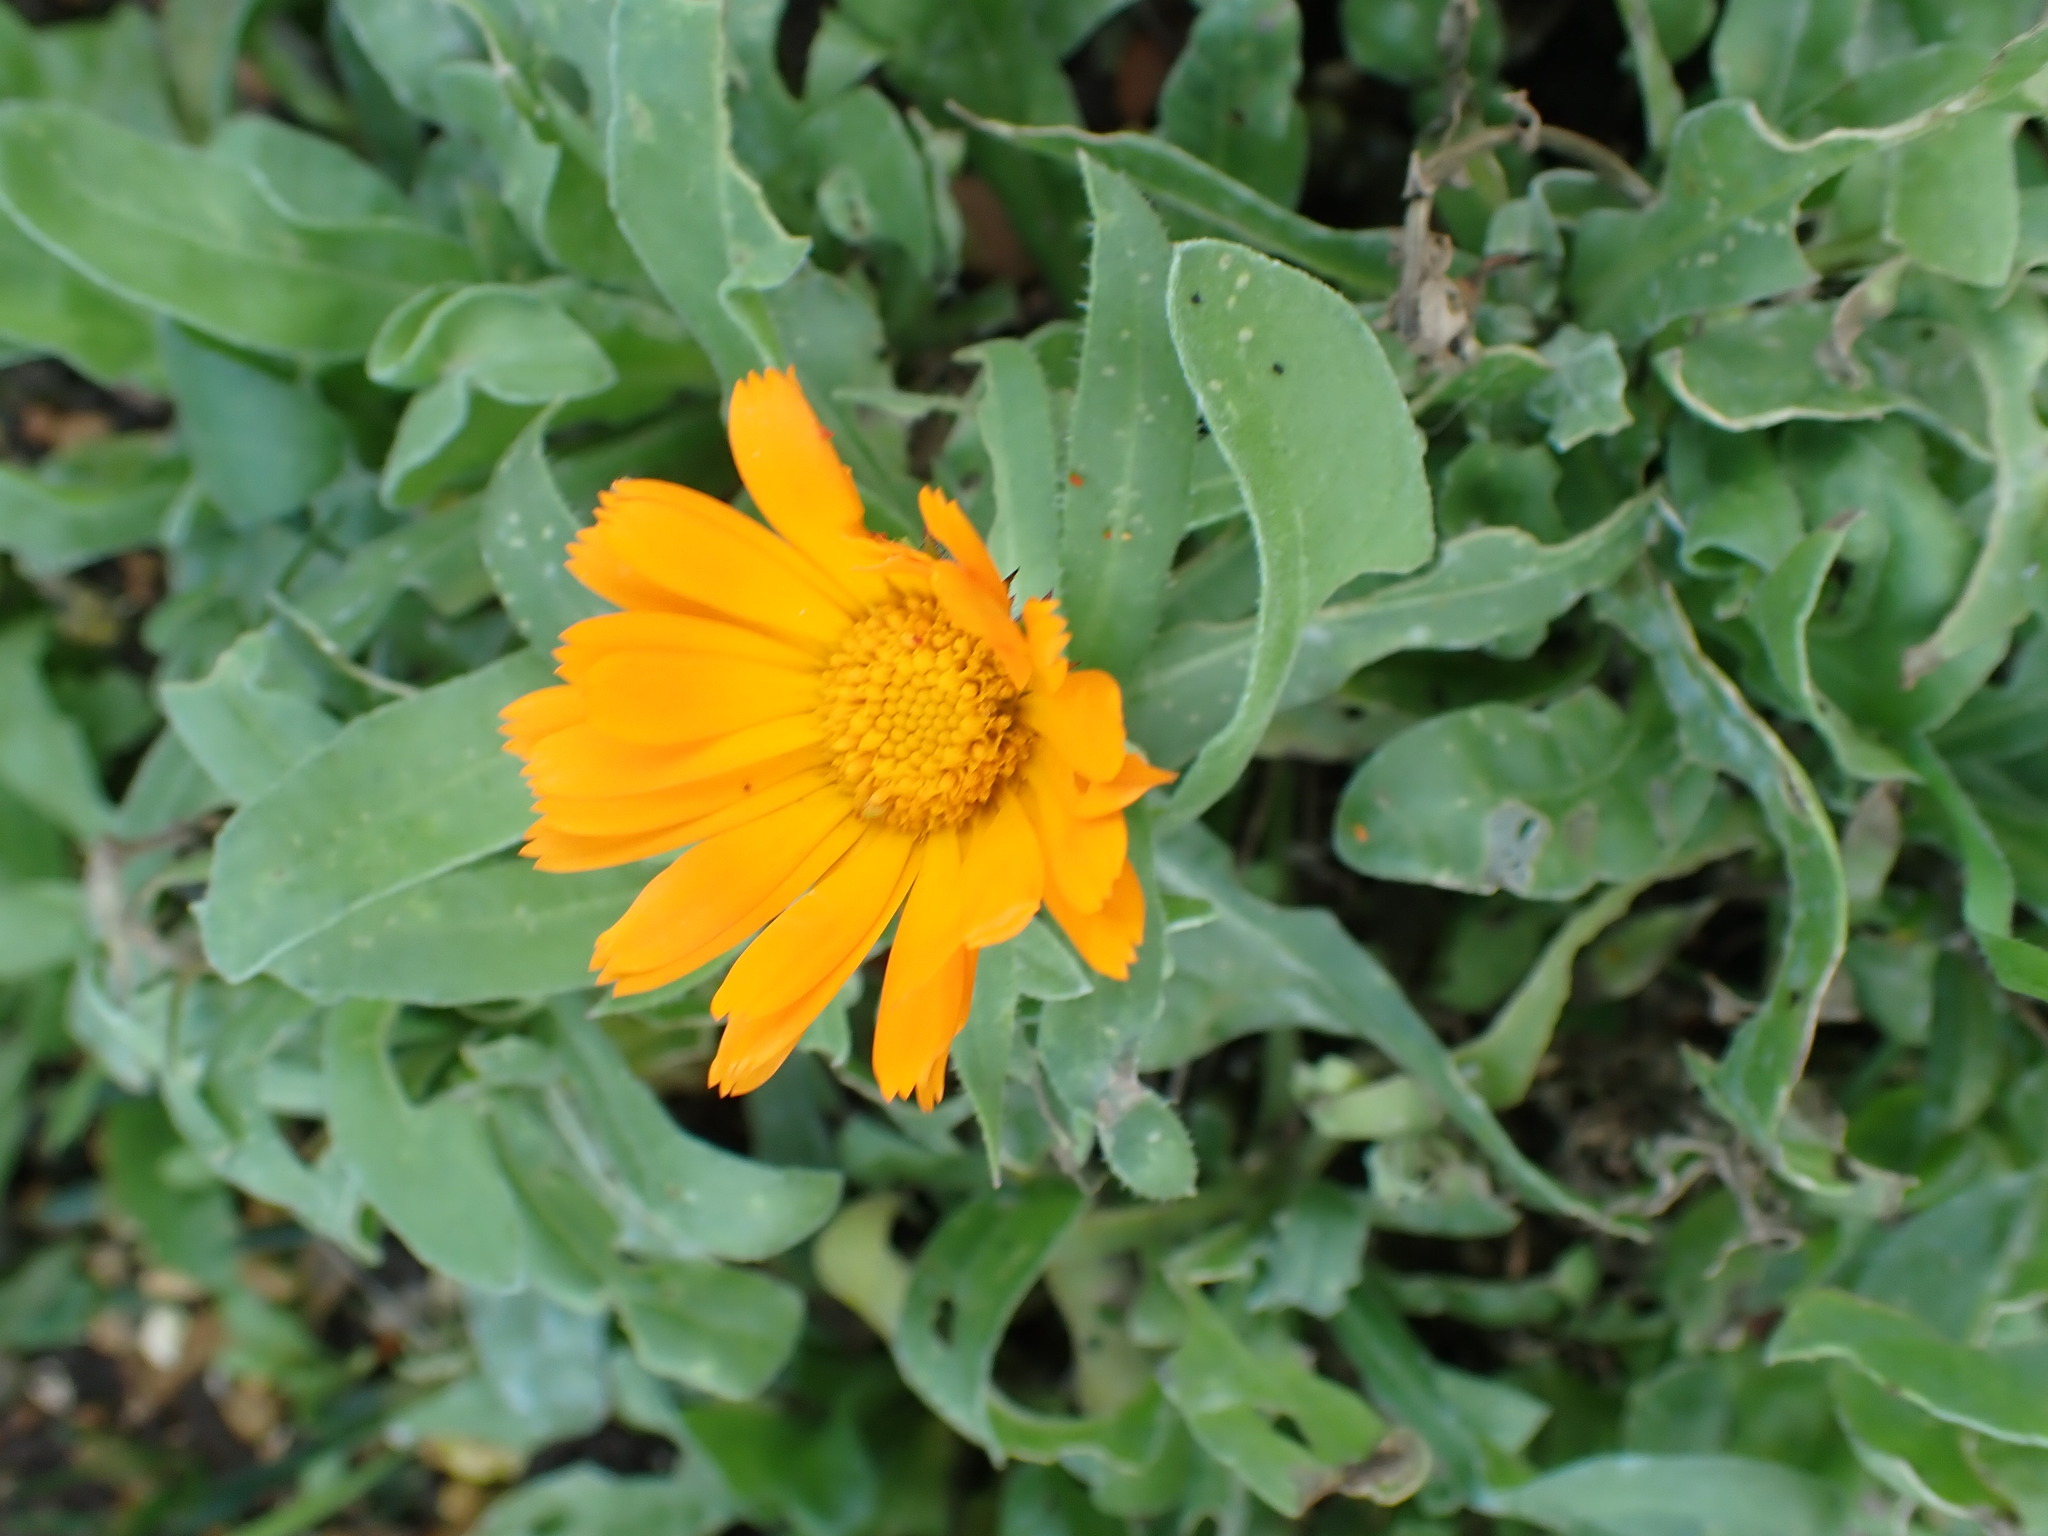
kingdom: Plantae
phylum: Tracheophyta
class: Magnoliopsida
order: Asterales
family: Asteraceae
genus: Calendula
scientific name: Calendula officinalis
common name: Pot marigold
